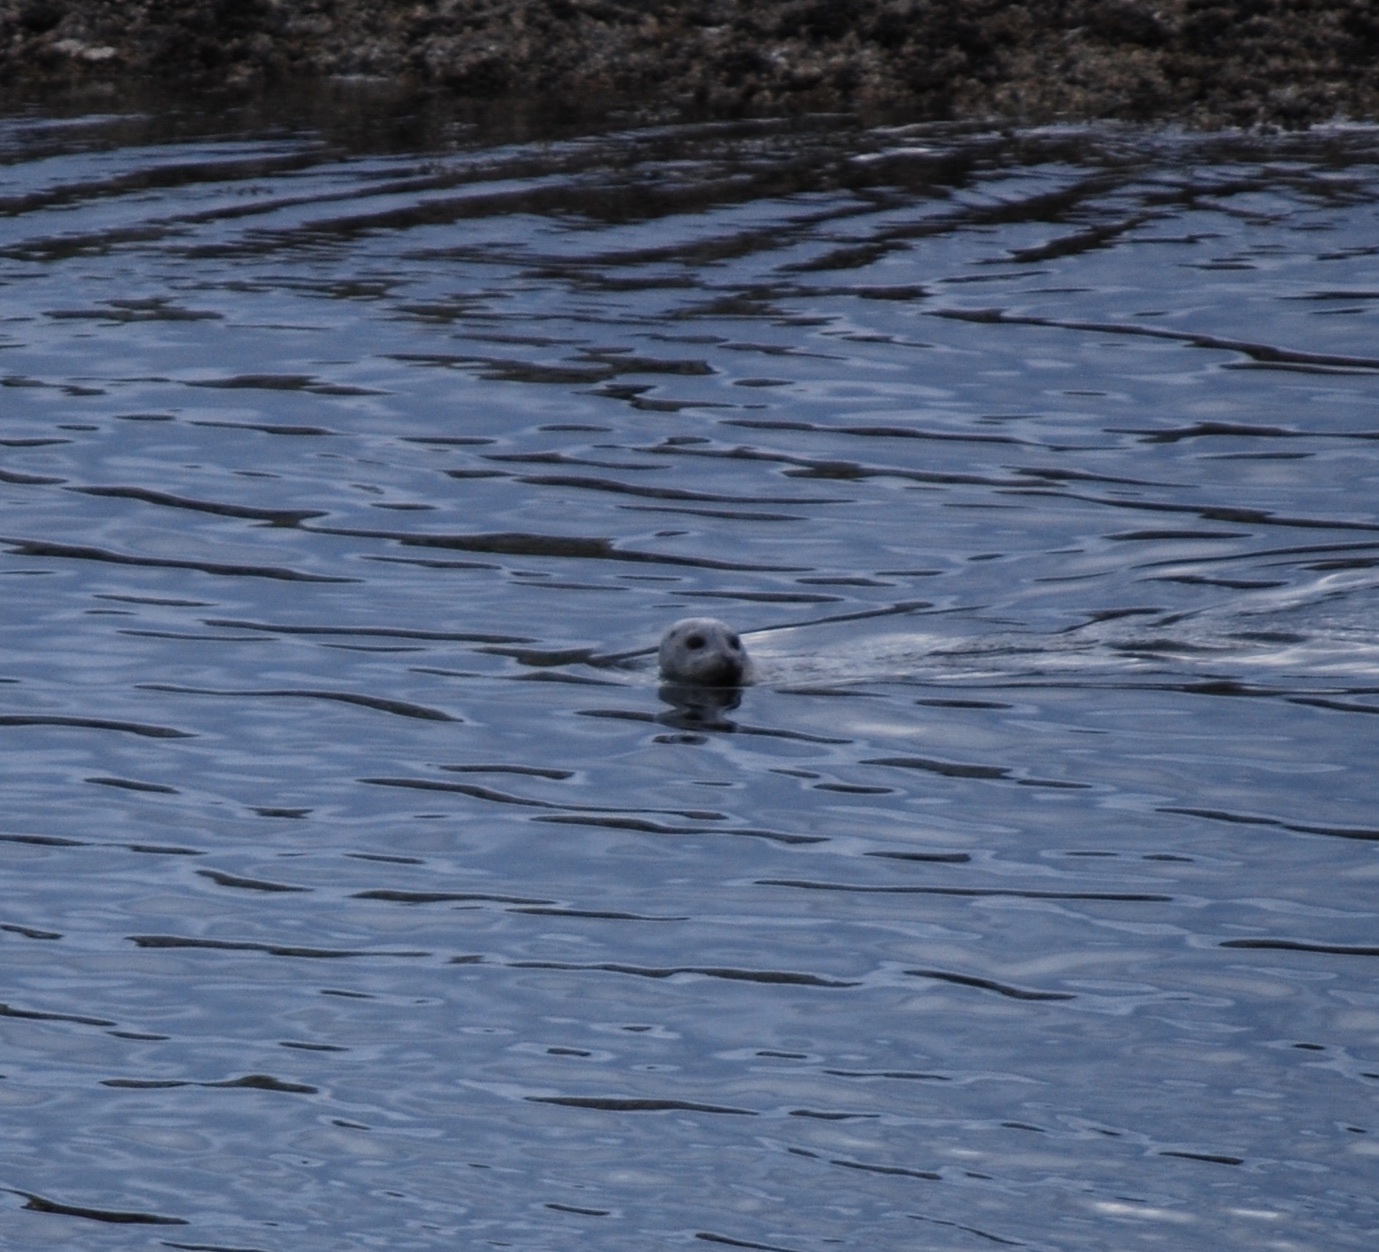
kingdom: Animalia
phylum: Chordata
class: Mammalia
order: Carnivora
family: Phocidae
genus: Phoca
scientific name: Phoca vitulina
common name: Harbor seal
